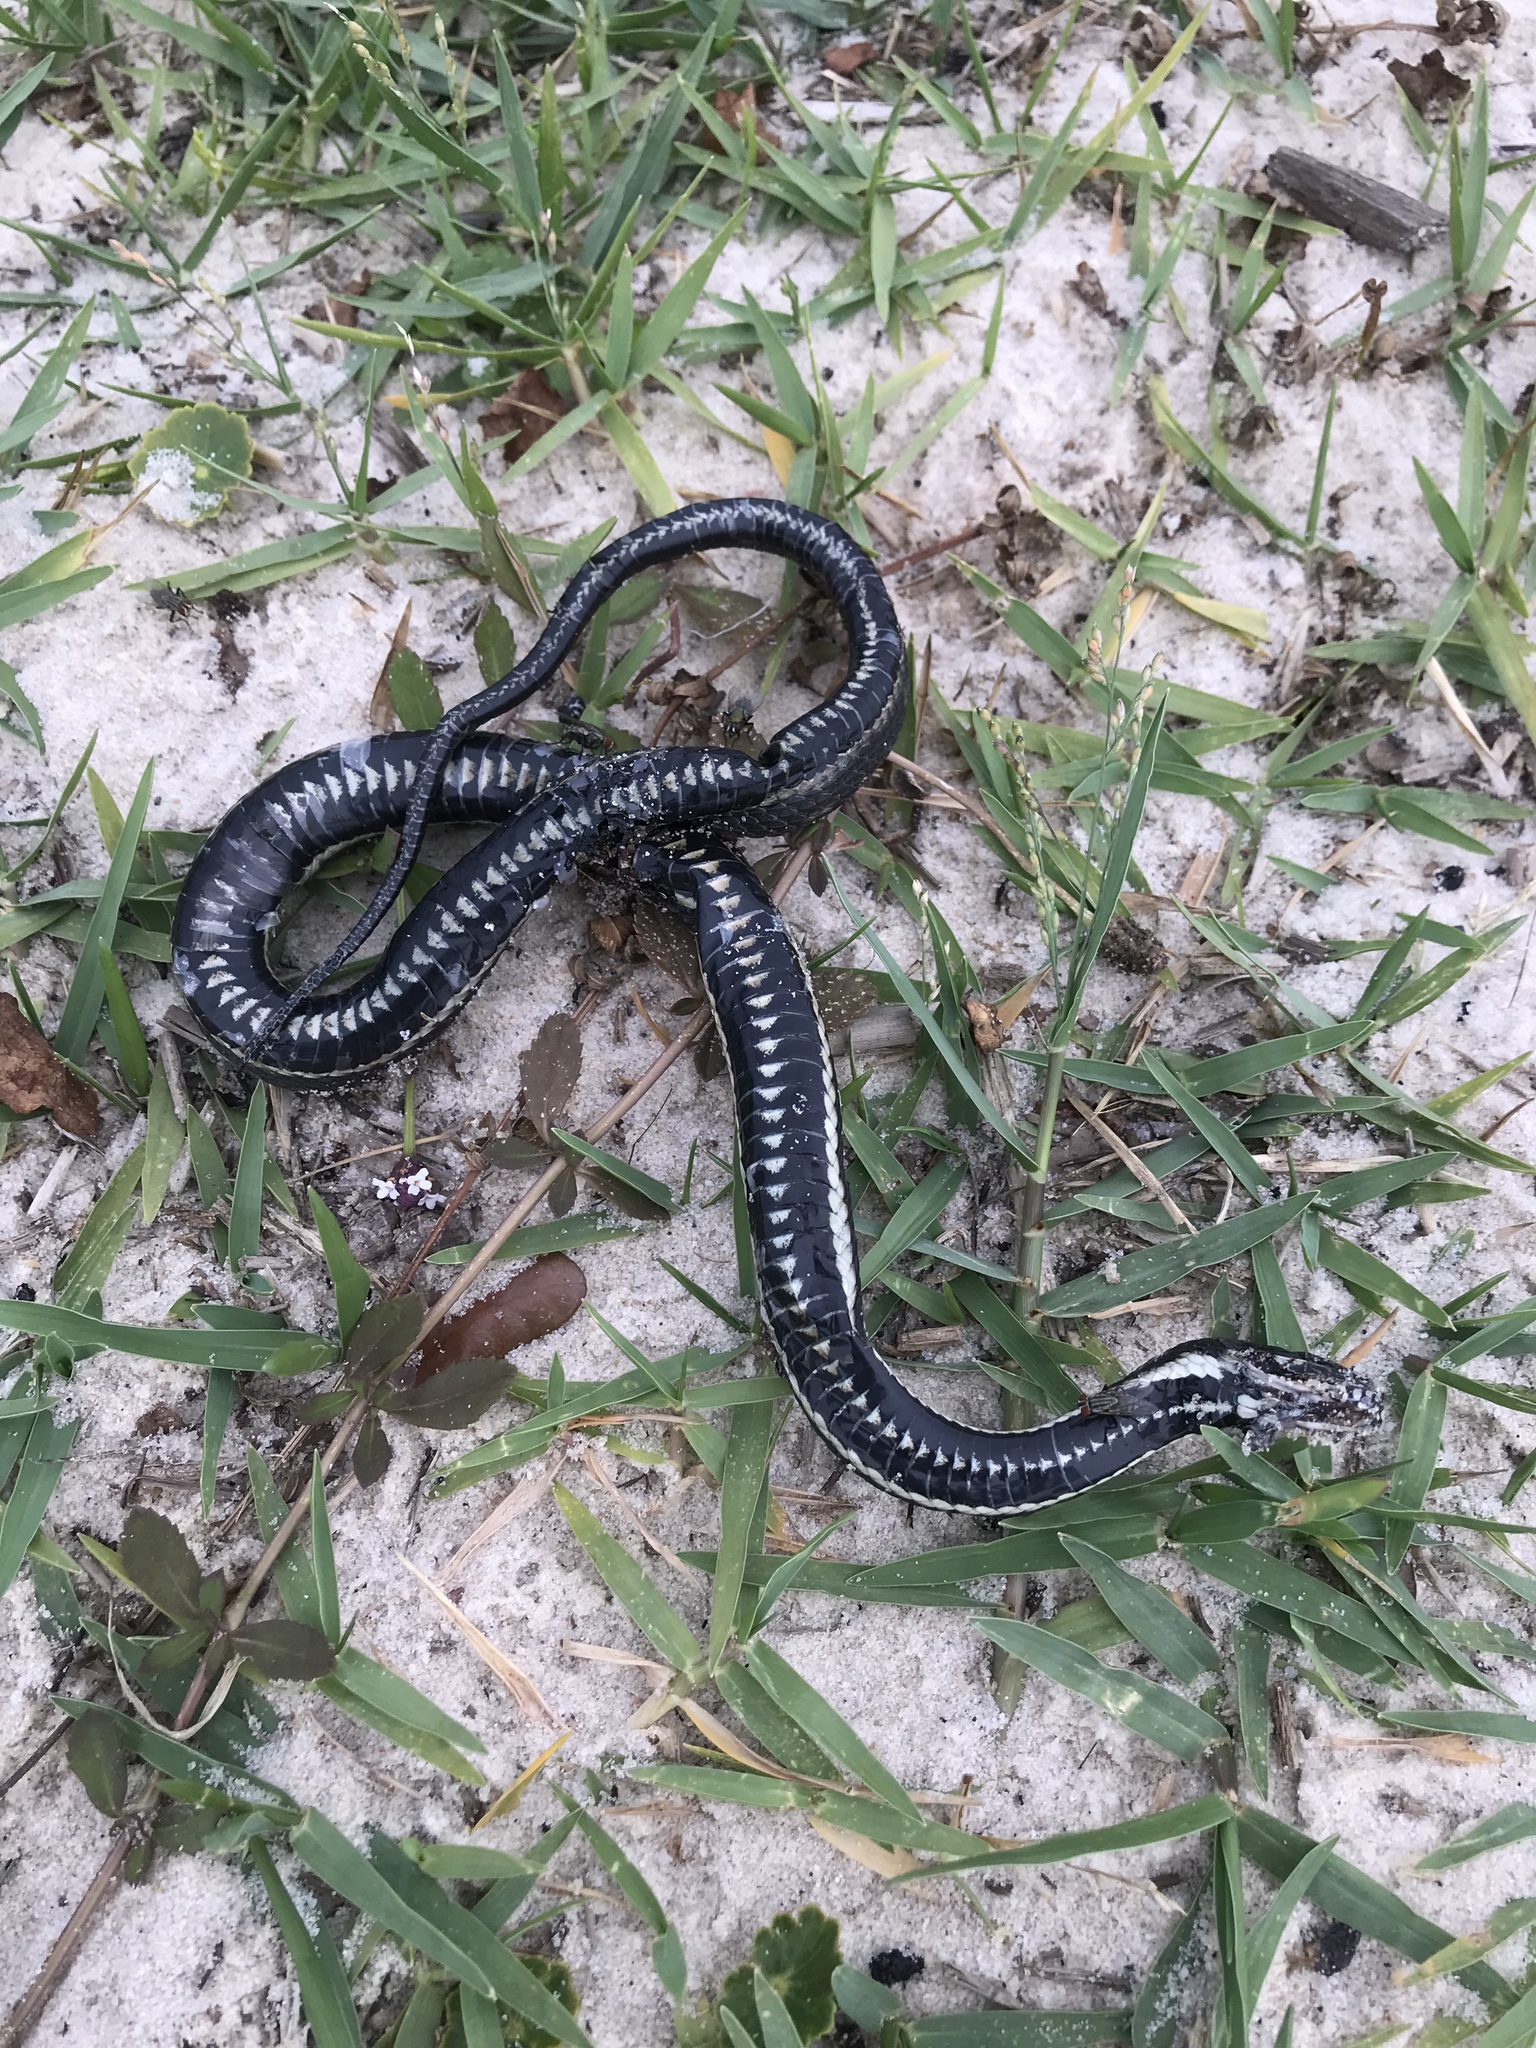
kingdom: Animalia
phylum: Chordata
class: Squamata
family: Colubridae
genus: Nerodia
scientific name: Nerodia clarkii
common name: Atlantic saltmarsh snake
